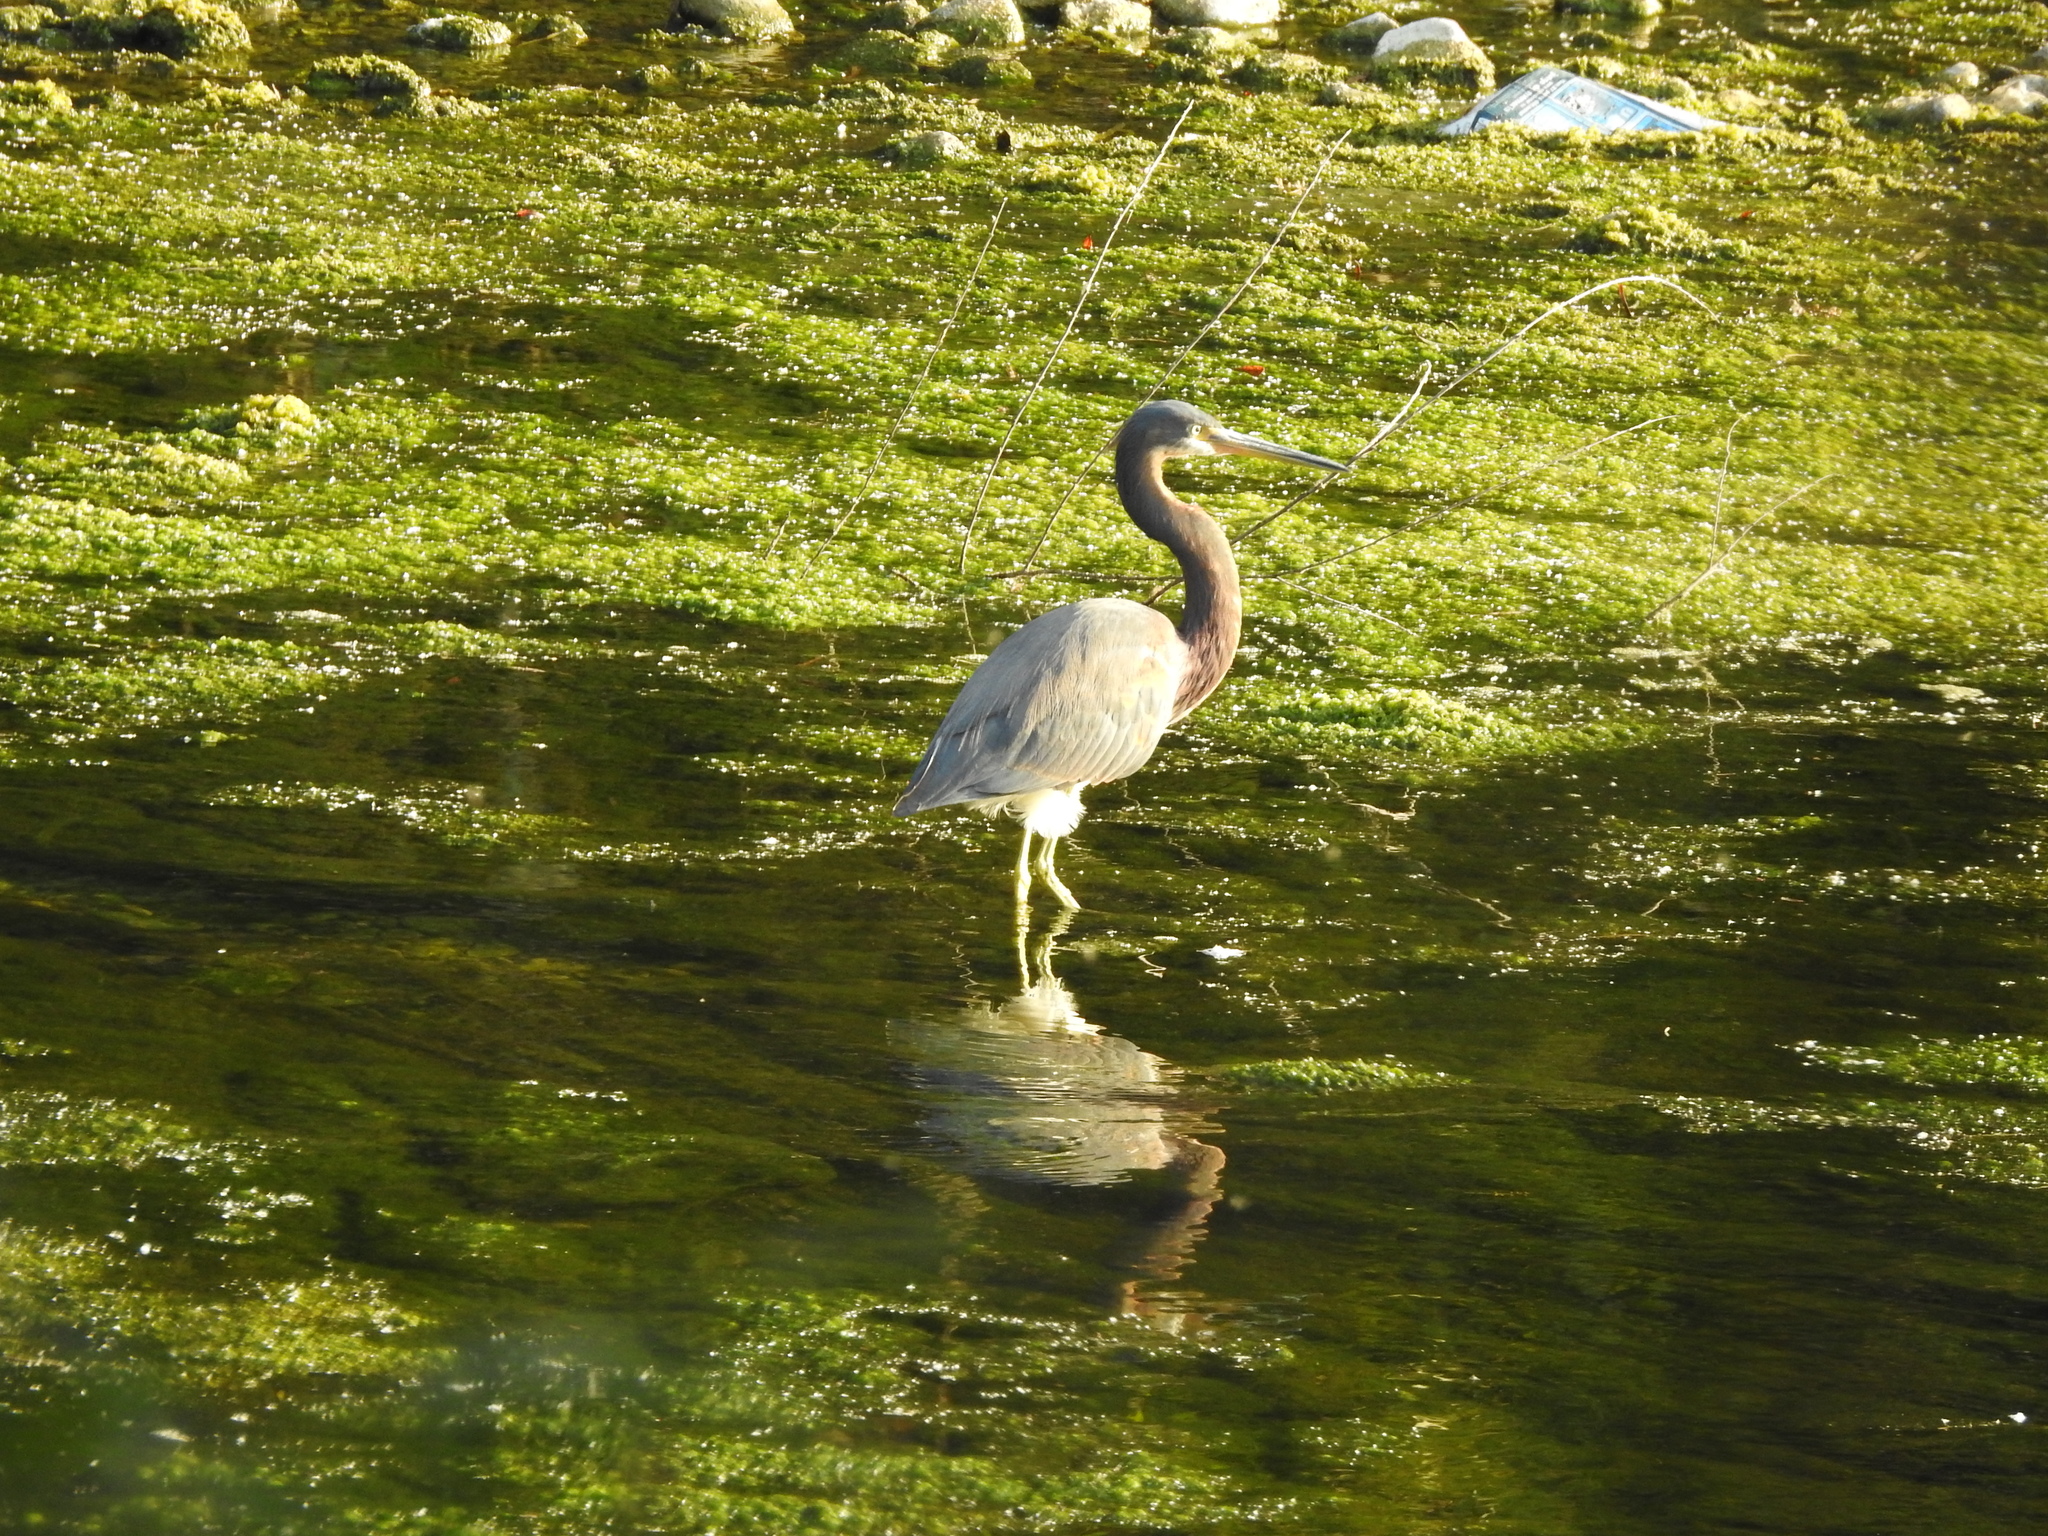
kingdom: Animalia
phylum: Chordata
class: Aves
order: Pelecaniformes
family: Ardeidae
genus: Egretta
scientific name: Egretta tricolor
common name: Tricolored heron
